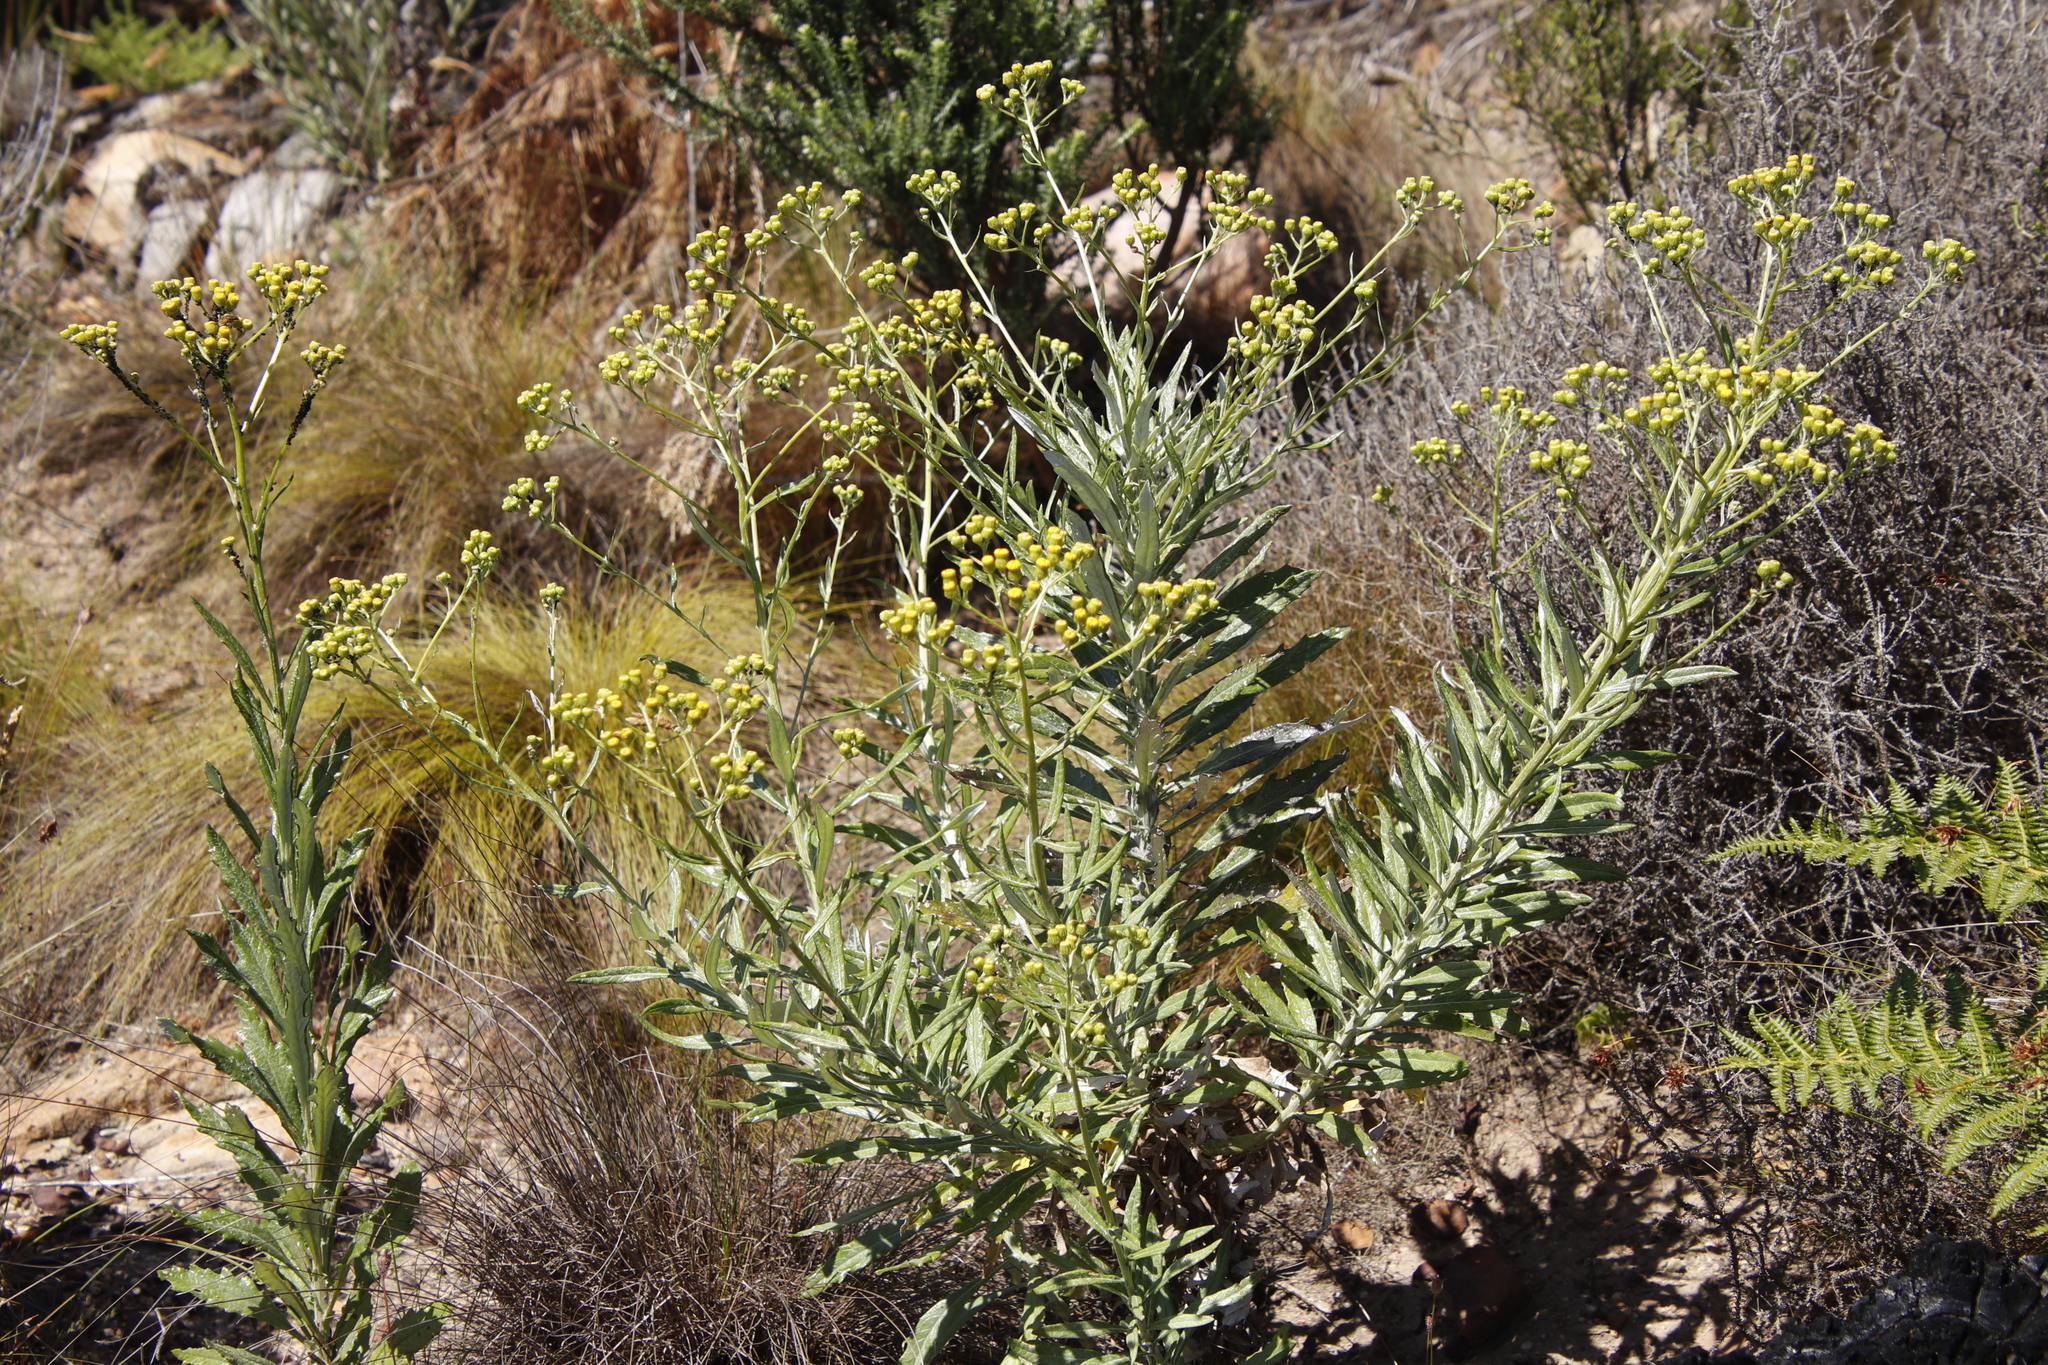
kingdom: Plantae
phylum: Tracheophyta
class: Magnoliopsida
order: Asterales
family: Asteraceae
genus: Senecio
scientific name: Senecio pterophorus
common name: Shoddy ragwort
